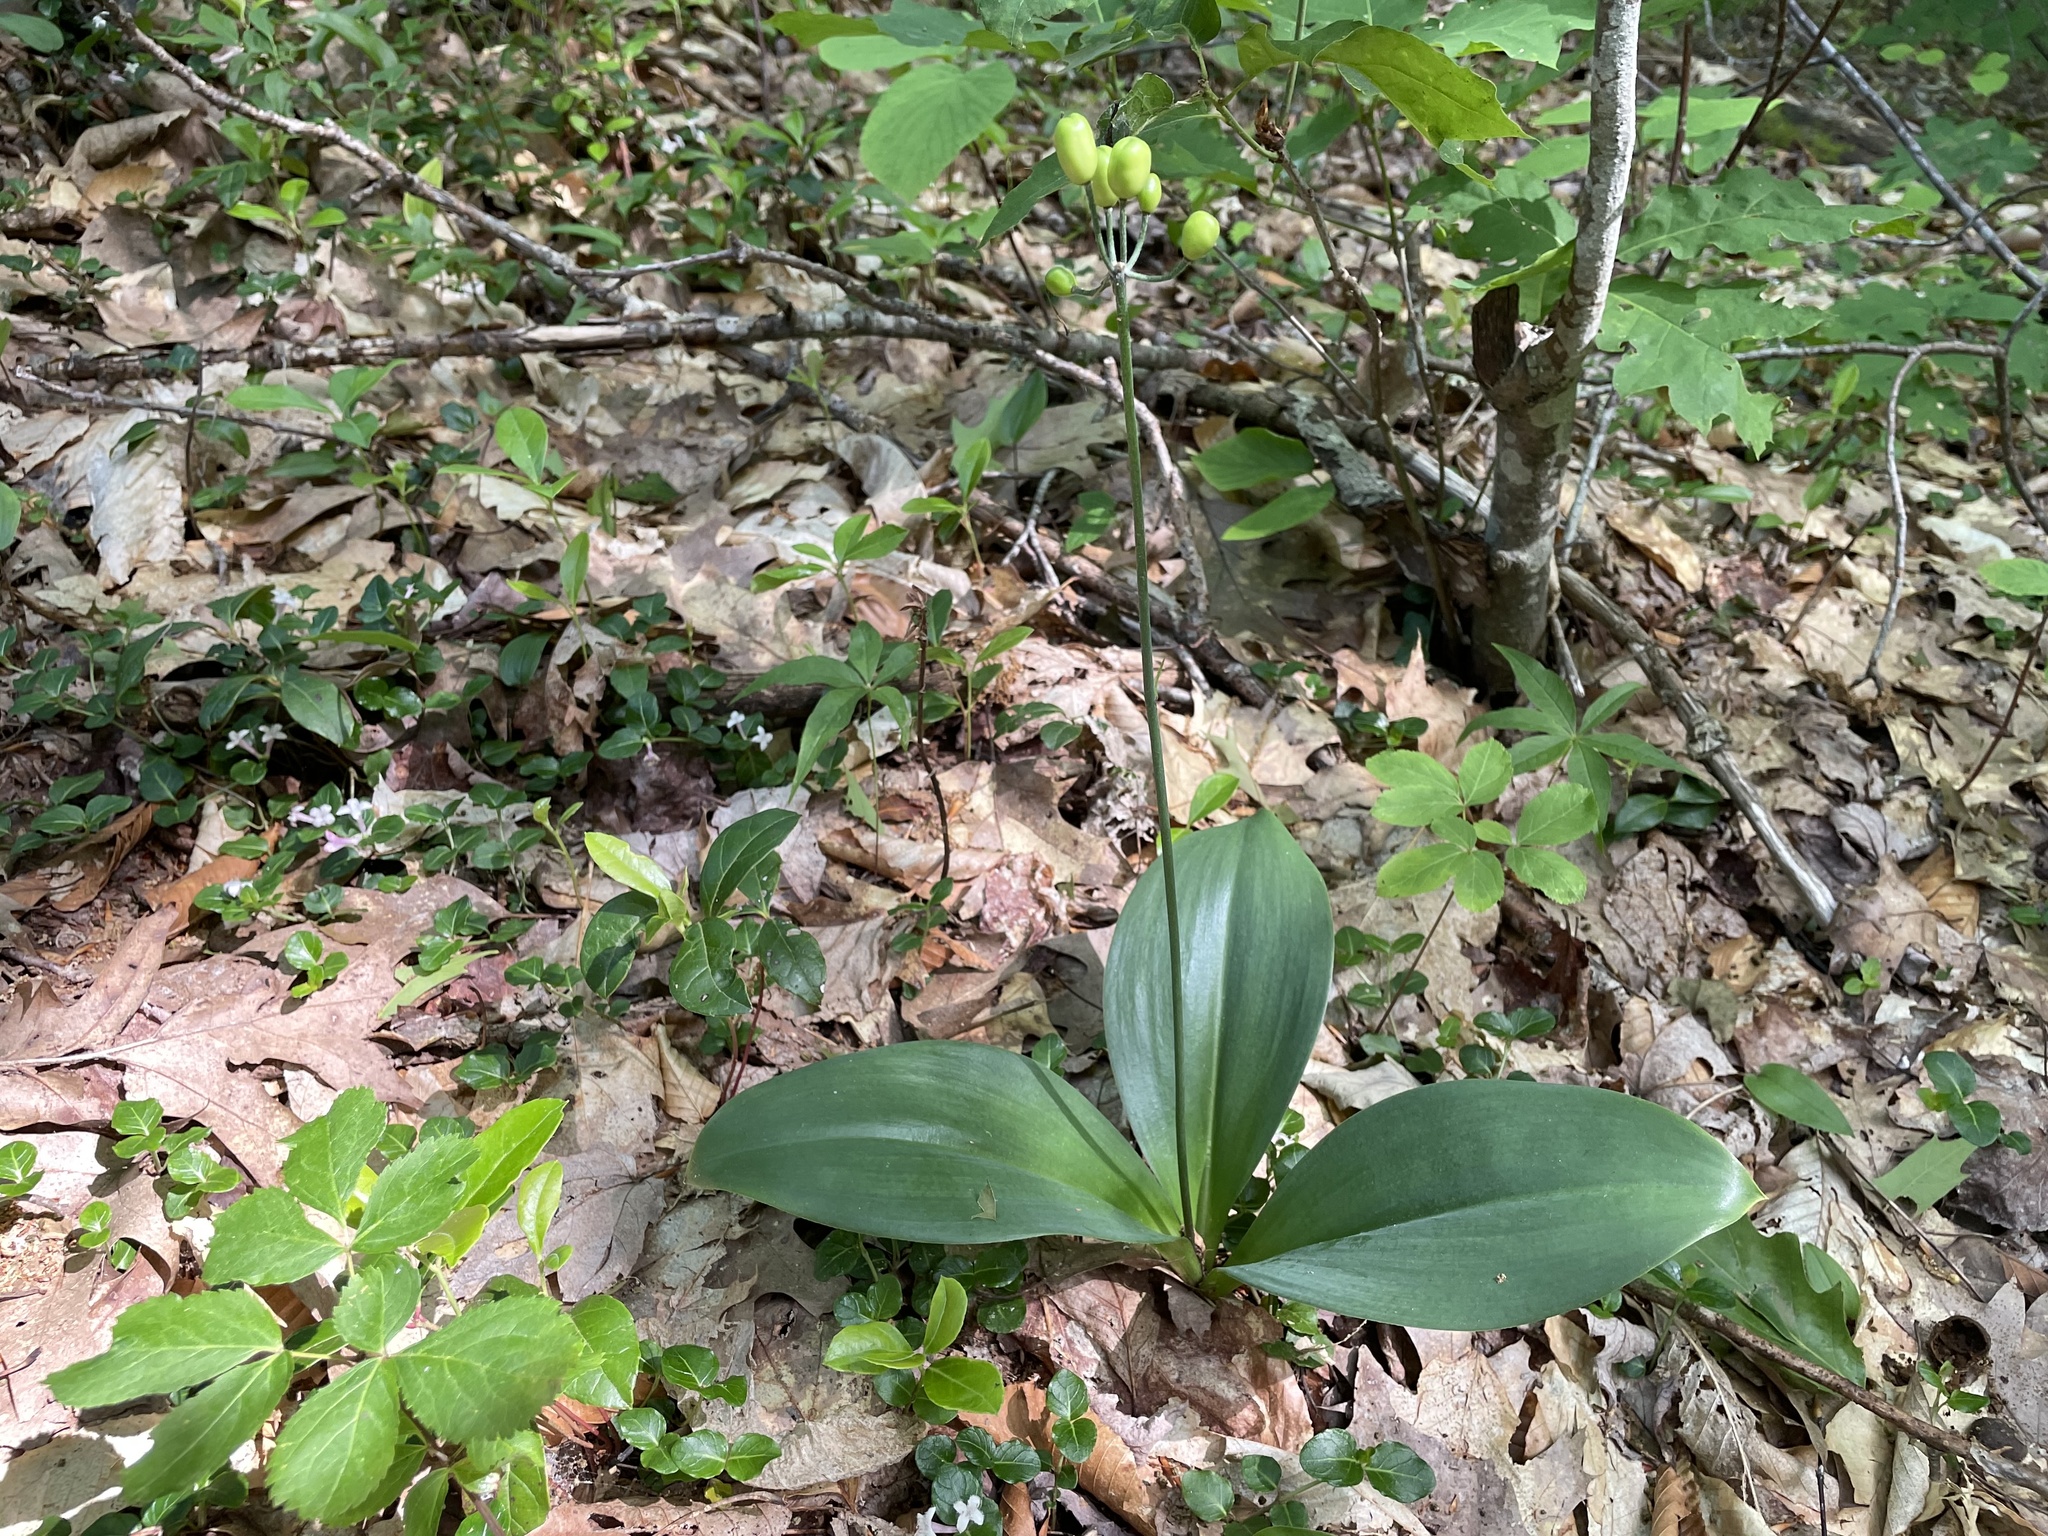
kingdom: Plantae
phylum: Tracheophyta
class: Liliopsida
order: Liliales
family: Liliaceae
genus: Clintonia
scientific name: Clintonia borealis
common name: Yellow clintonia
